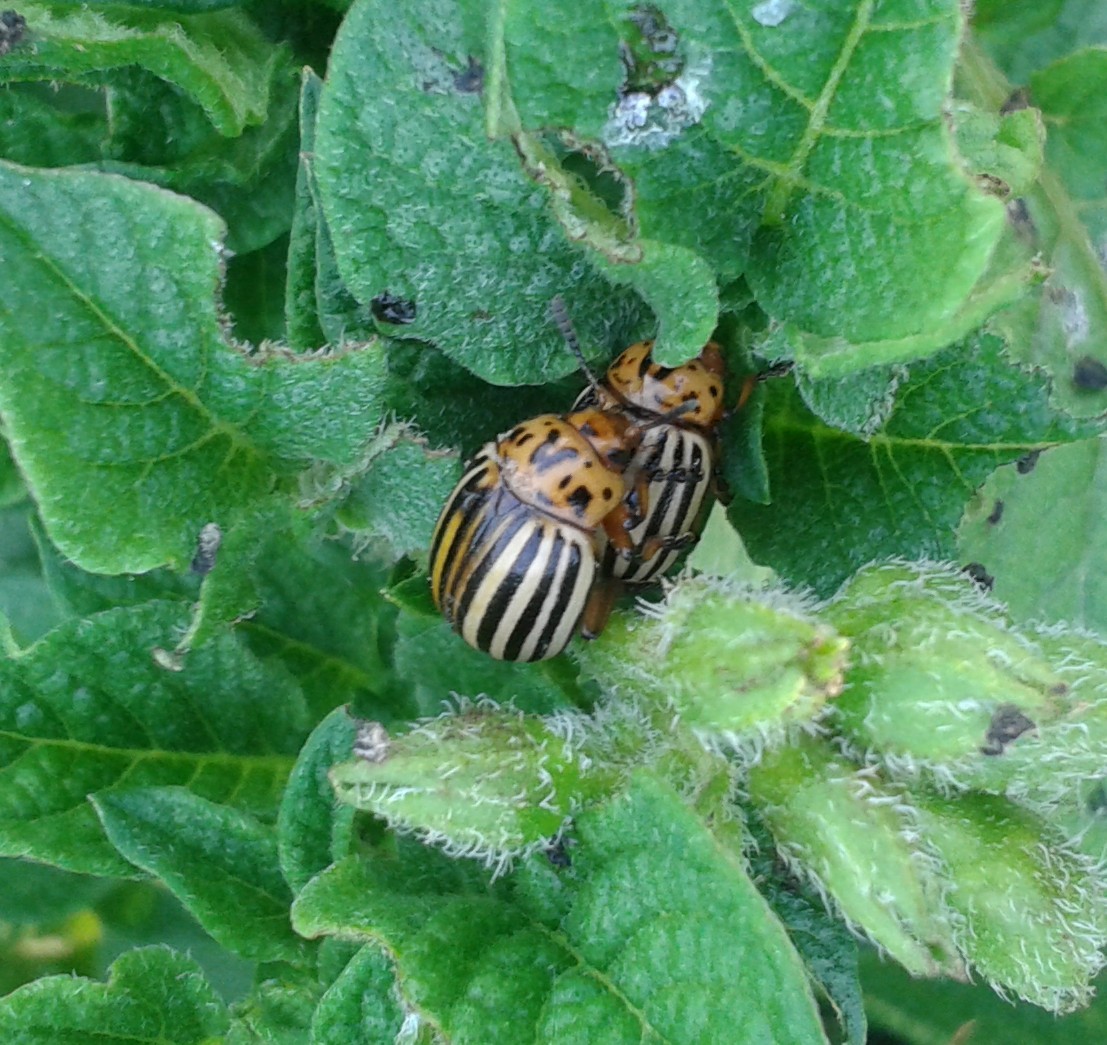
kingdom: Animalia
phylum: Arthropoda
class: Insecta
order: Coleoptera
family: Chrysomelidae
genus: Leptinotarsa
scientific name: Leptinotarsa decemlineata
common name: Colorado potato beetle
